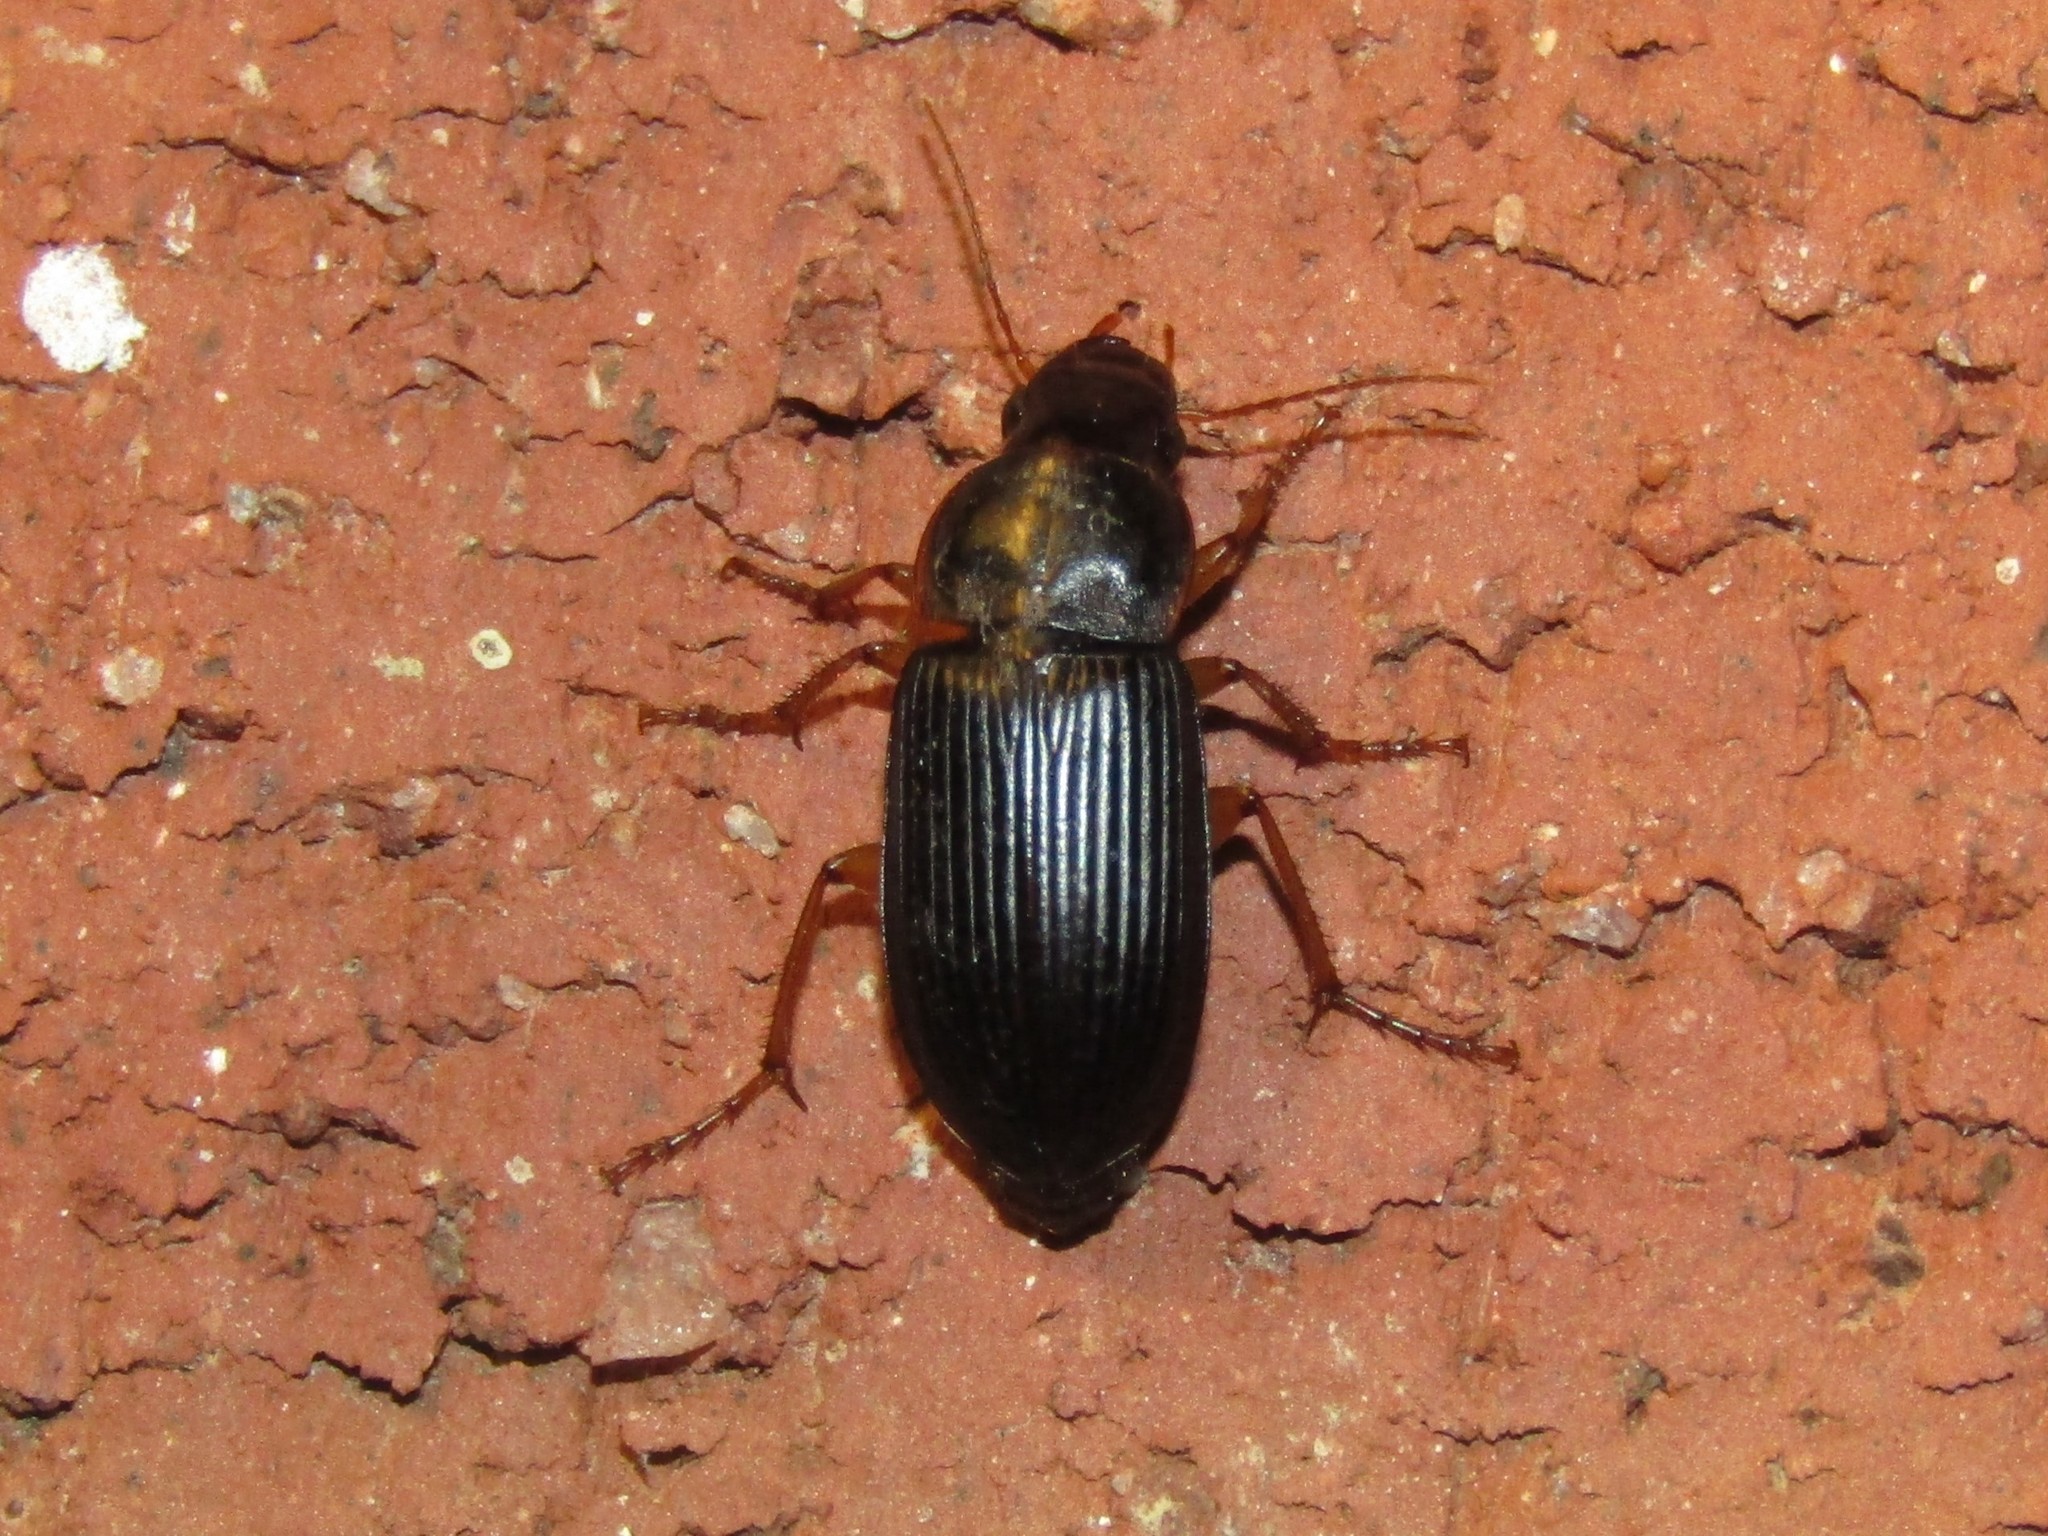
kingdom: Animalia
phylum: Arthropoda
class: Insecta
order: Coleoptera
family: Carabidae
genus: Harpalus
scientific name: Harpalus pensylvanicus
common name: Pennsylvania dingy ground beetle
